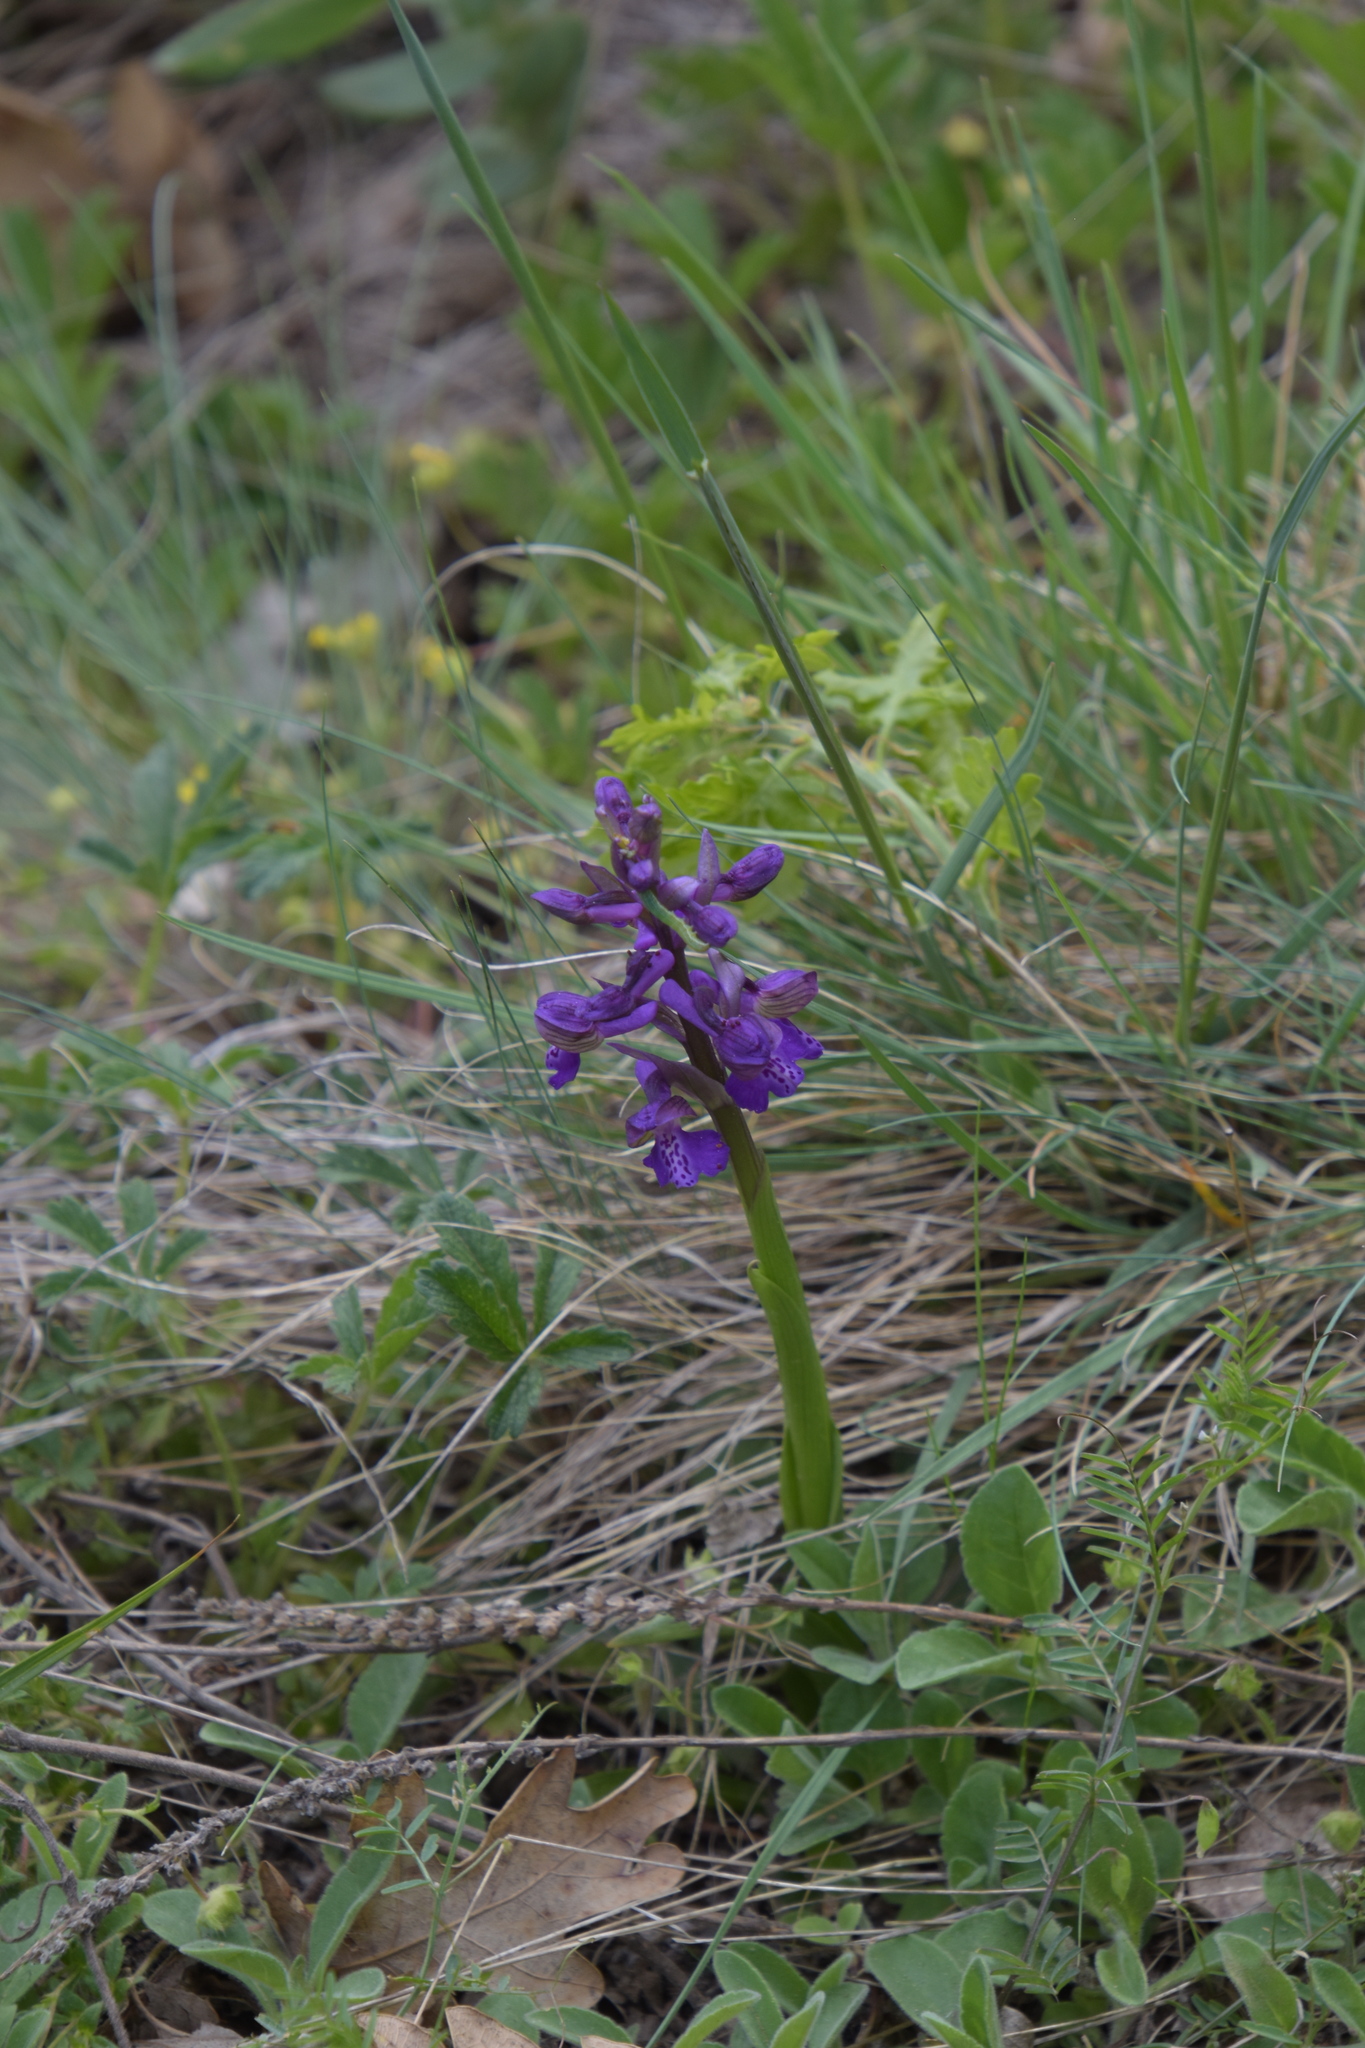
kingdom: Plantae
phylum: Tracheophyta
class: Liliopsida
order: Asparagales
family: Orchidaceae
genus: Anacamptis
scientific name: Anacamptis morio
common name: Green-winged orchid
